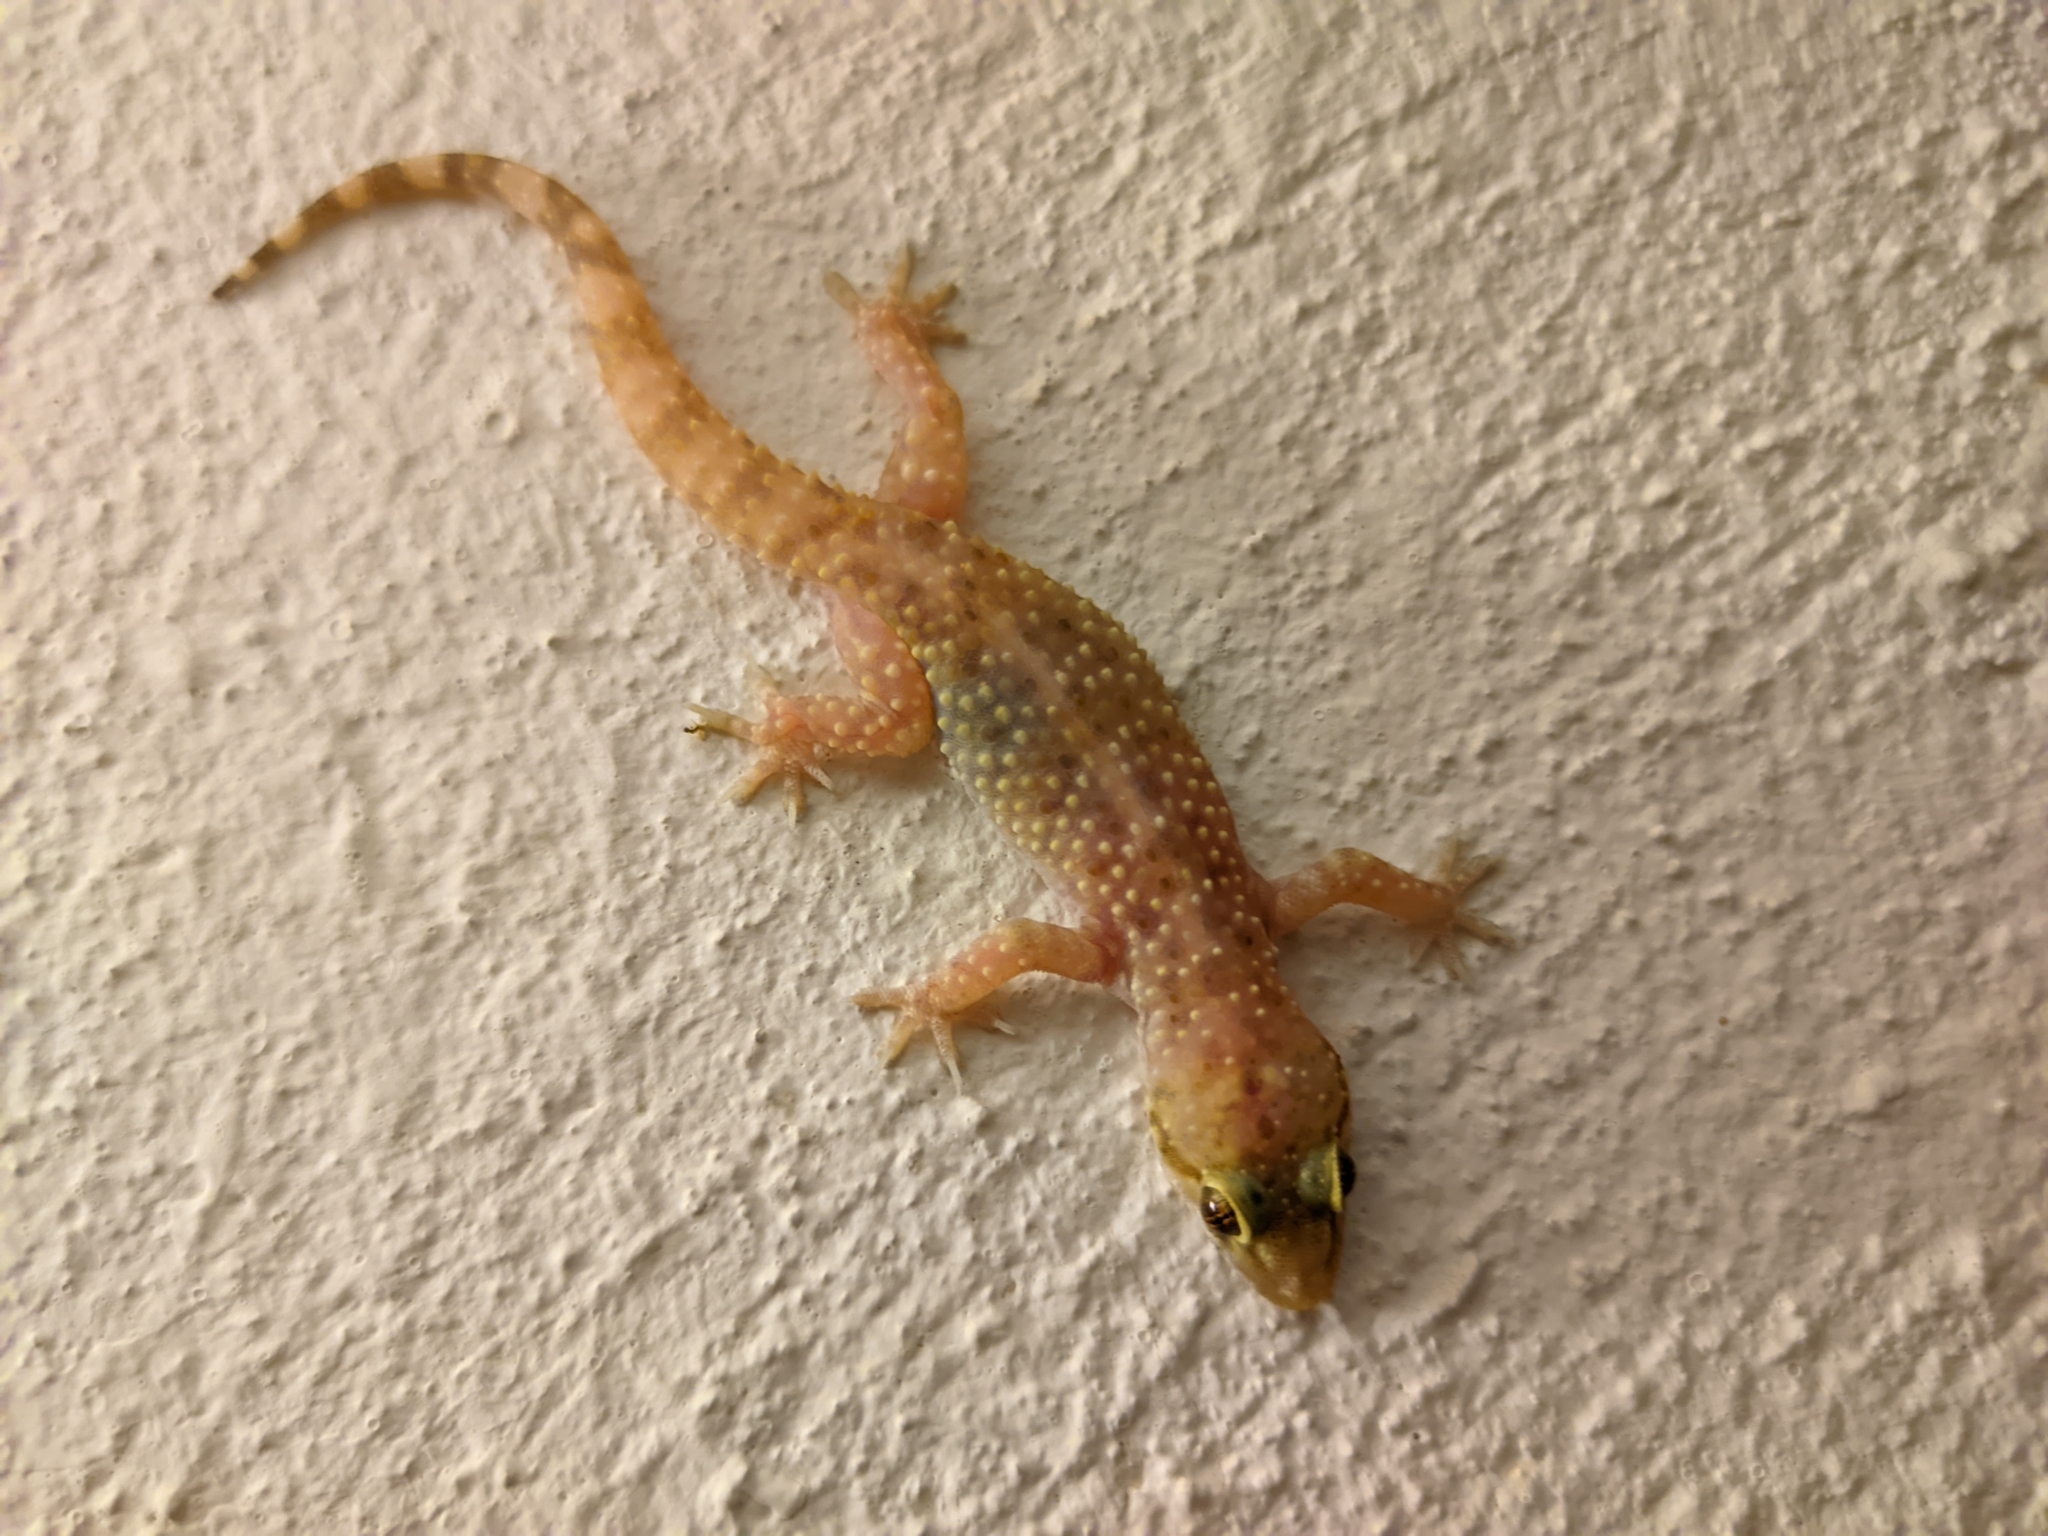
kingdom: Animalia
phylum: Chordata
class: Squamata
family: Gekkonidae
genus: Hemidactylus
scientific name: Hemidactylus turcicus
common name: Turkish gecko
